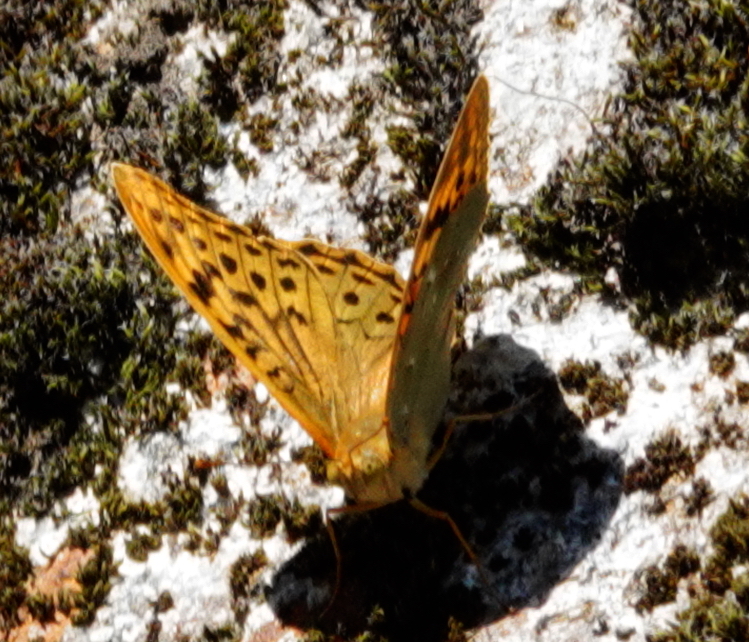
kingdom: Animalia
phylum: Arthropoda
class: Insecta
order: Lepidoptera
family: Nymphalidae
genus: Damora
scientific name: Damora pandora
